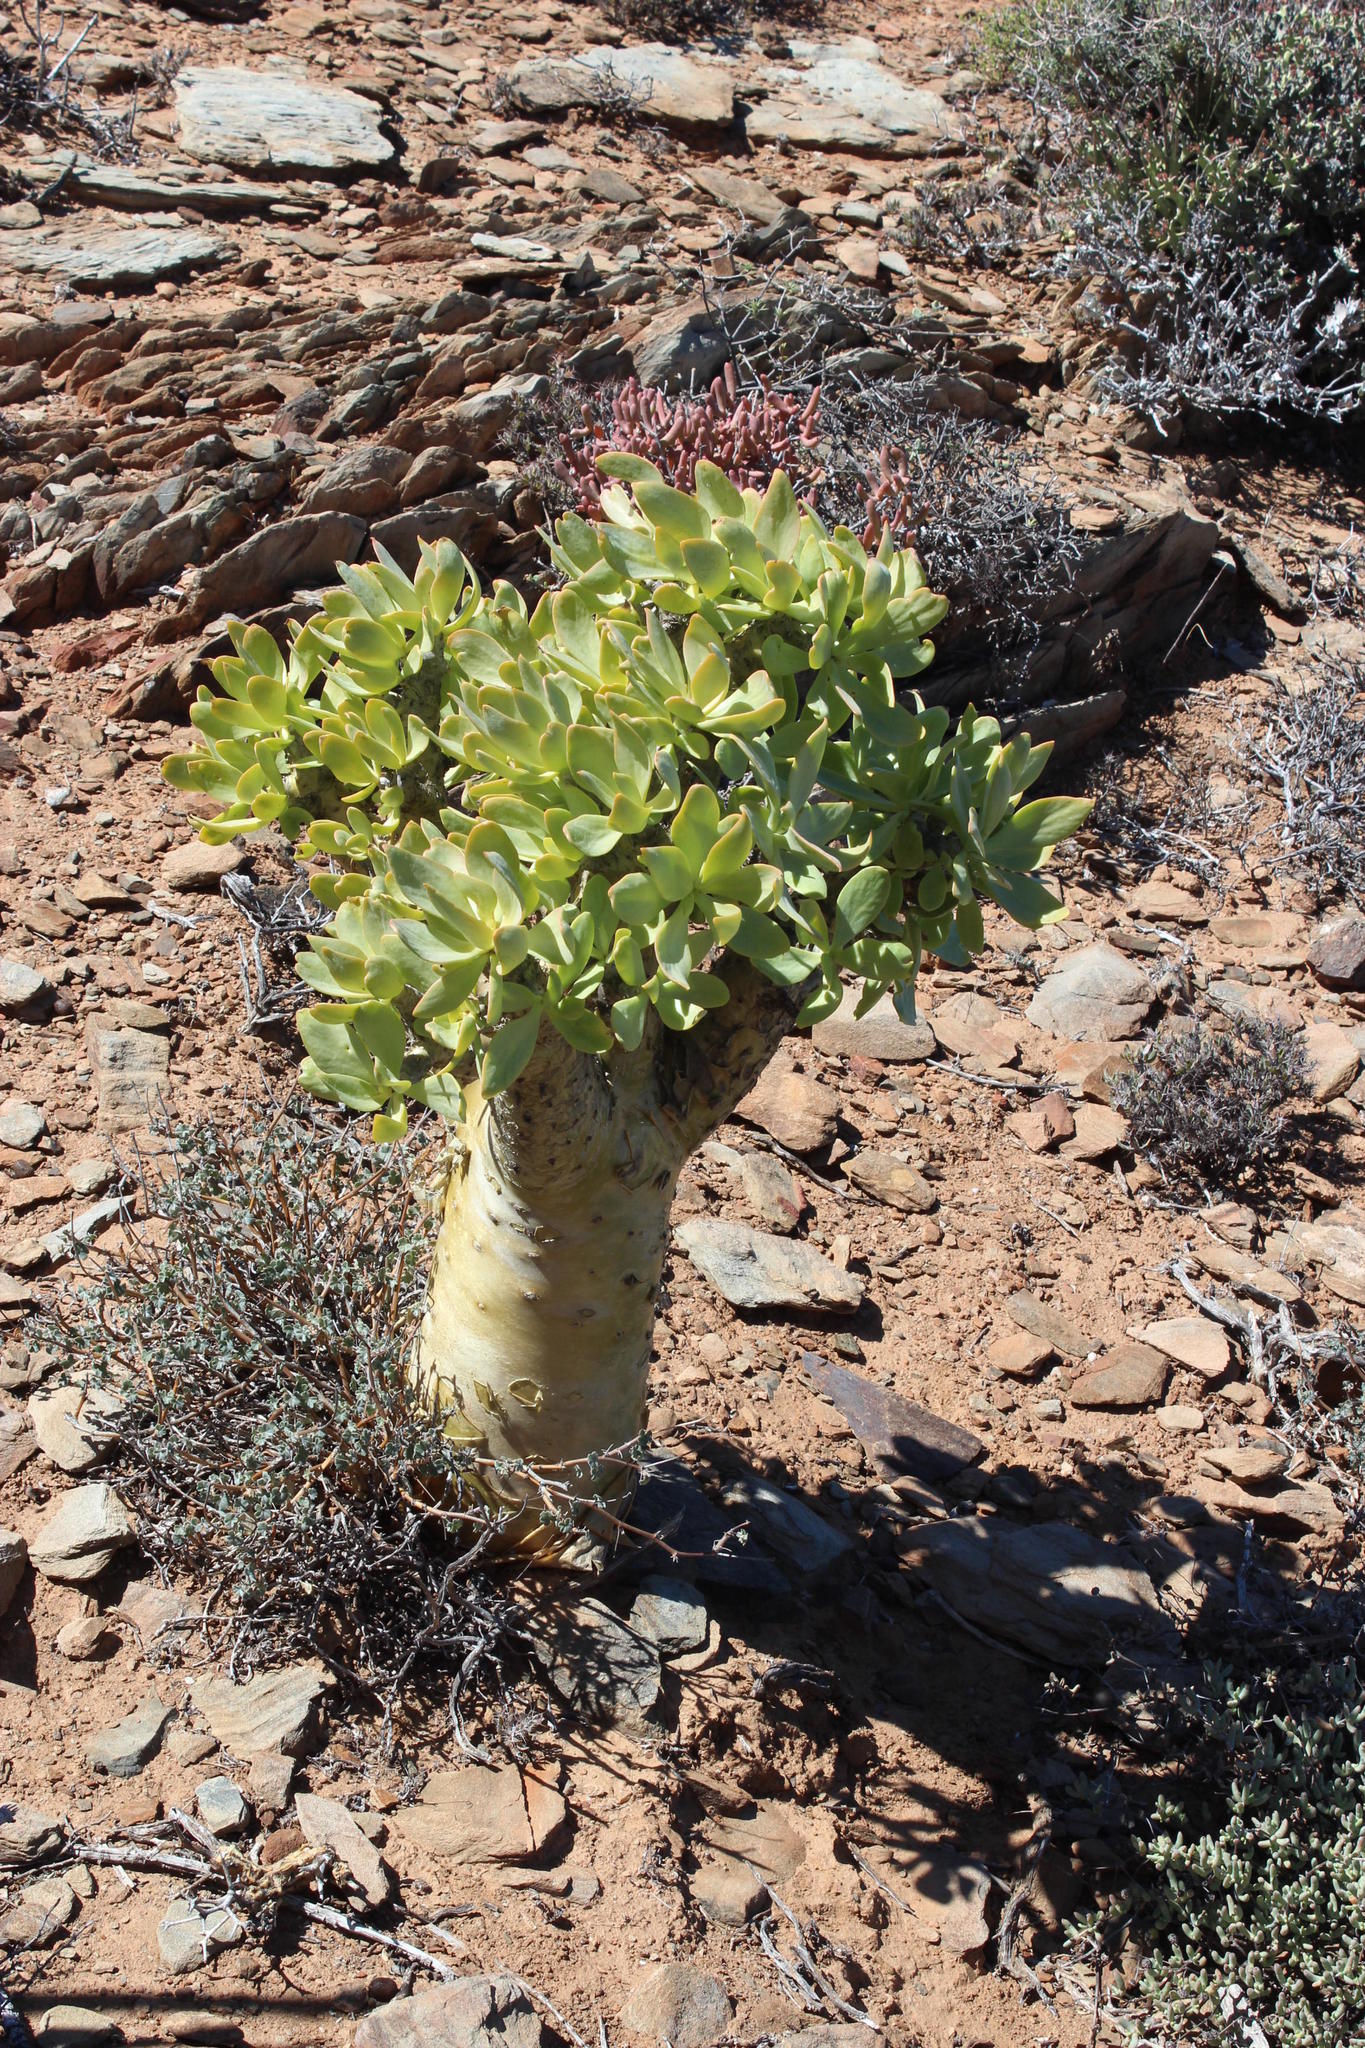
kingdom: Plantae
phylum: Tracheophyta
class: Magnoliopsida
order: Saxifragales
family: Crassulaceae
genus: Tylecodon
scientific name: Tylecodon paniculatus
